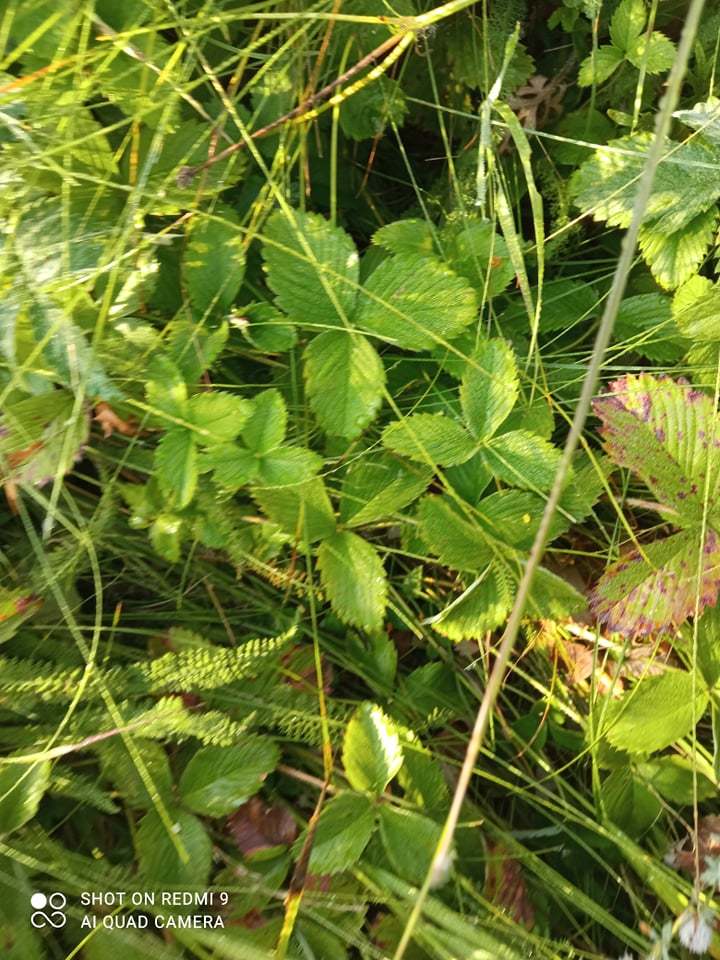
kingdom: Plantae
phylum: Tracheophyta
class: Magnoliopsida
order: Rosales
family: Rosaceae
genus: Fragaria
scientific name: Fragaria viridis
